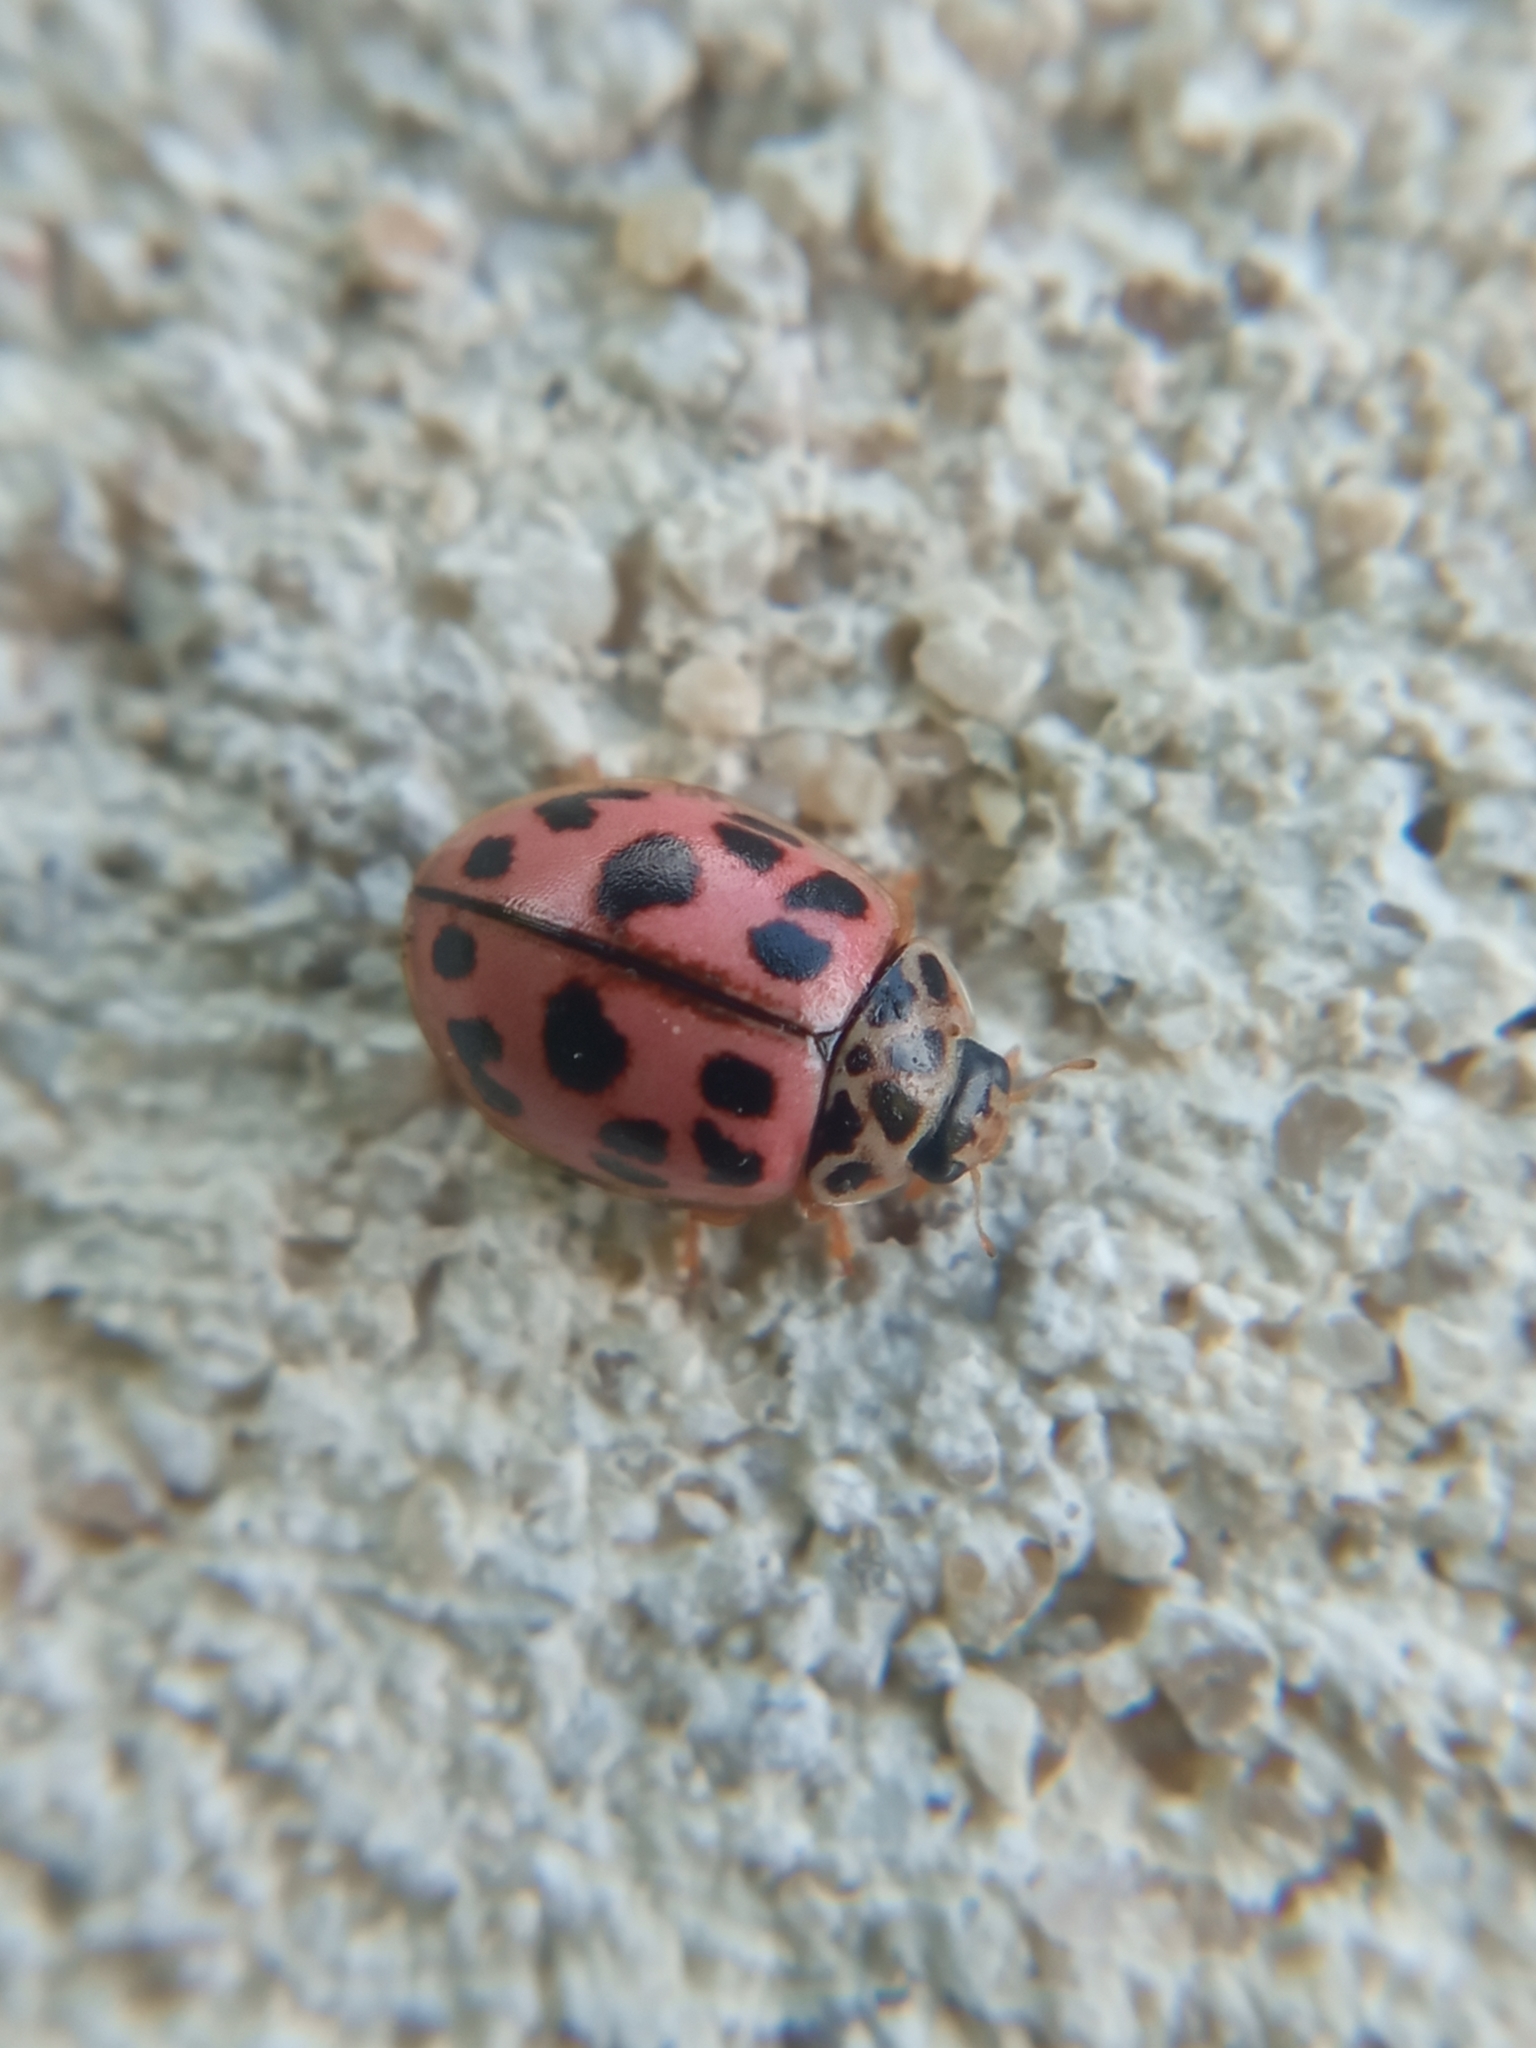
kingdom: Animalia
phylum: Arthropoda
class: Insecta
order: Coleoptera
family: Coccinellidae
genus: Oenopia
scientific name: Oenopia conglobata
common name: Ladybird beetle
